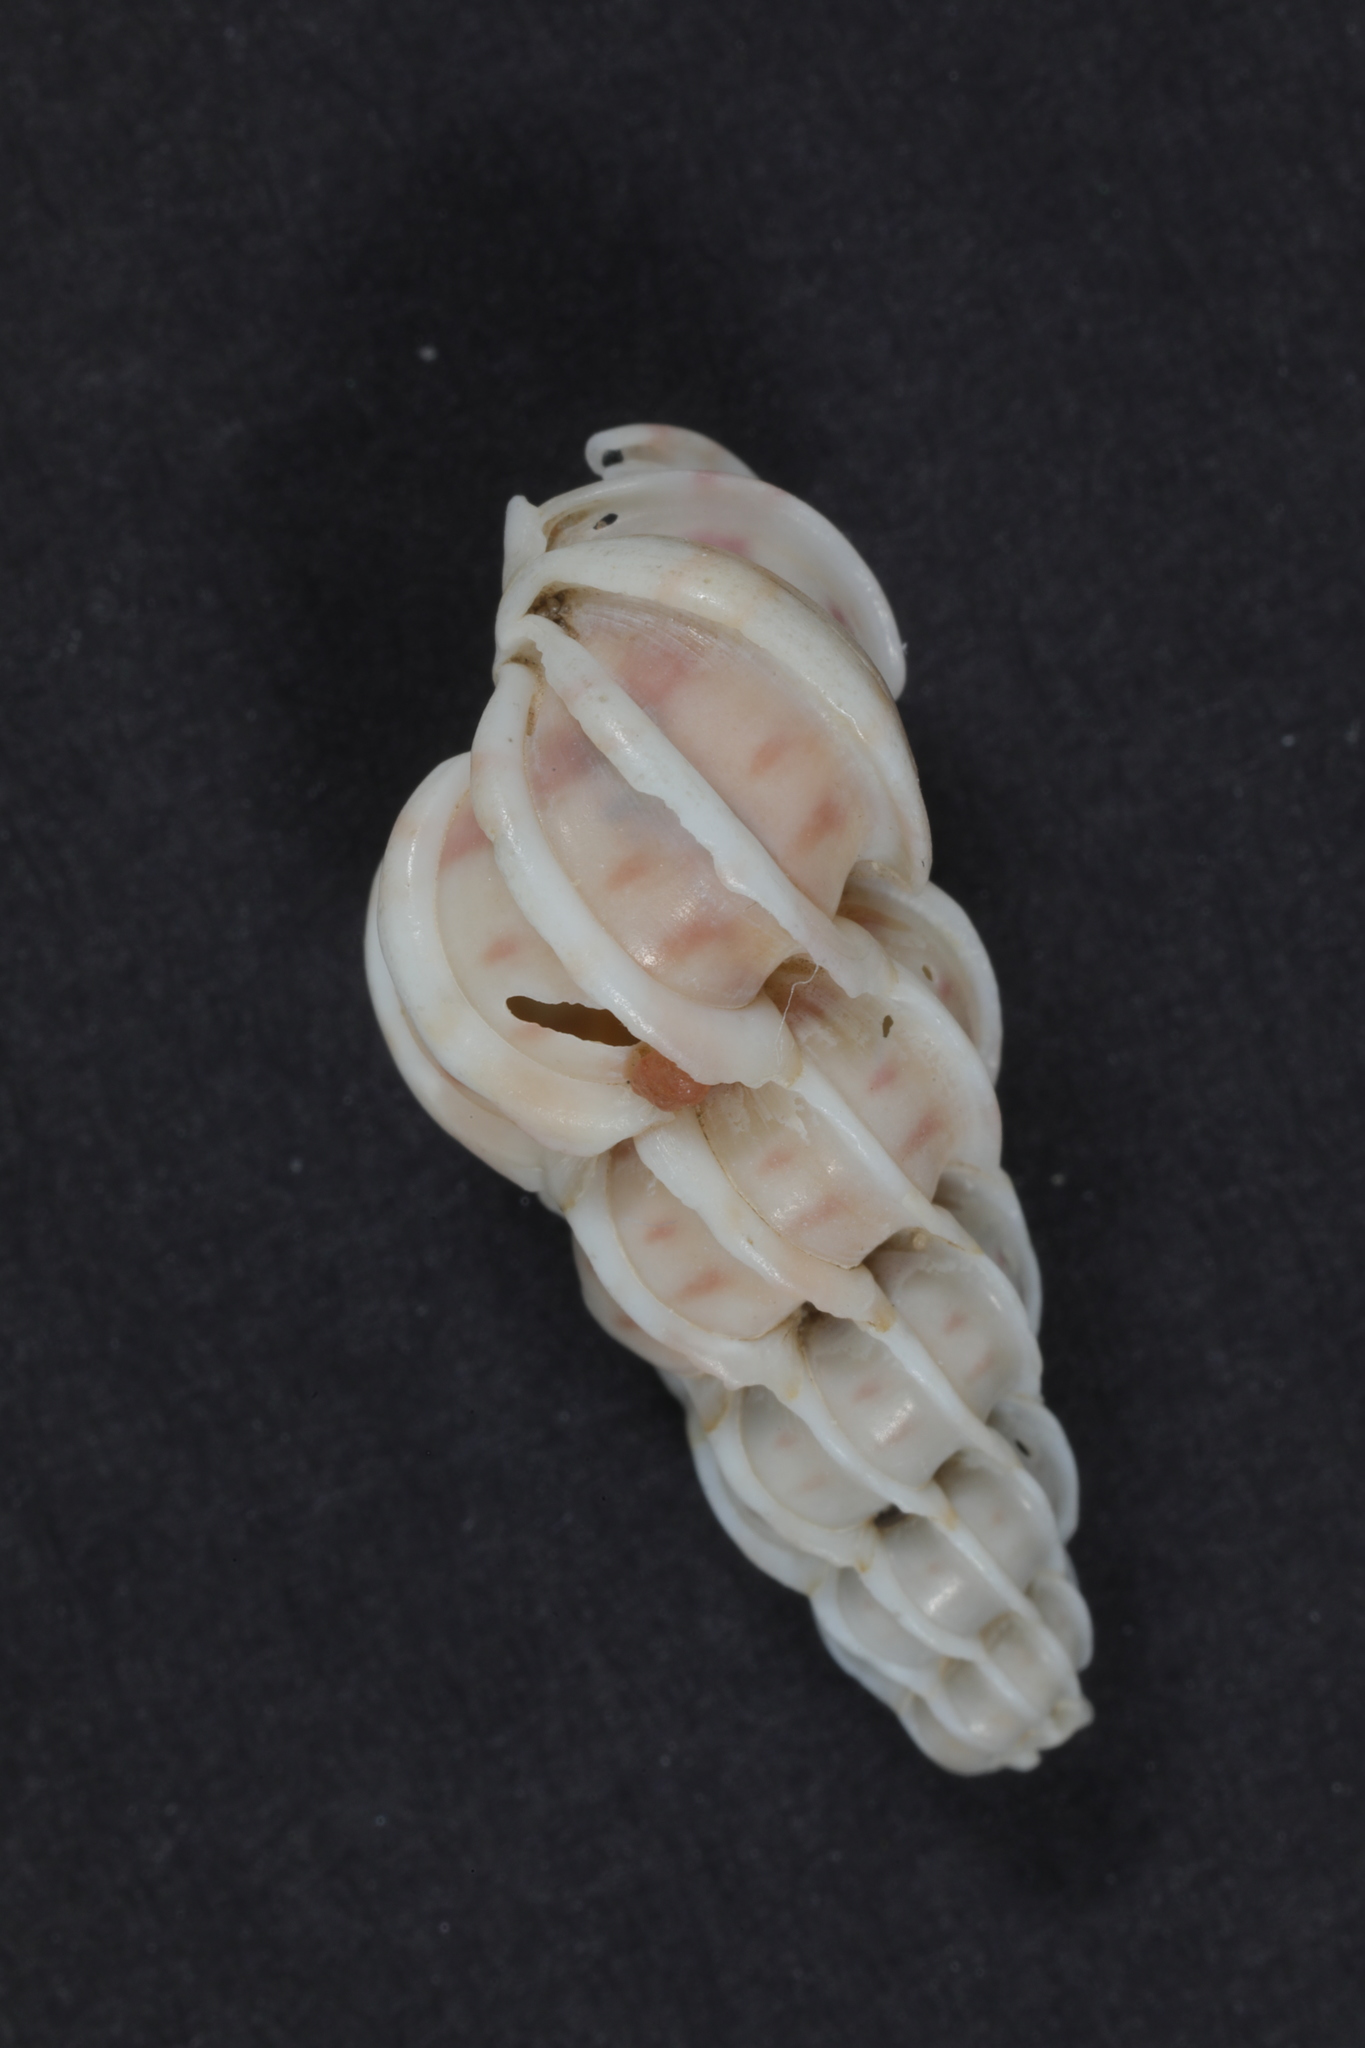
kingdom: Animalia
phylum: Mollusca
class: Gastropoda
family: Epitoniidae
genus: Epitonium
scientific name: Epitonium clathrus
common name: Common wentletrap
